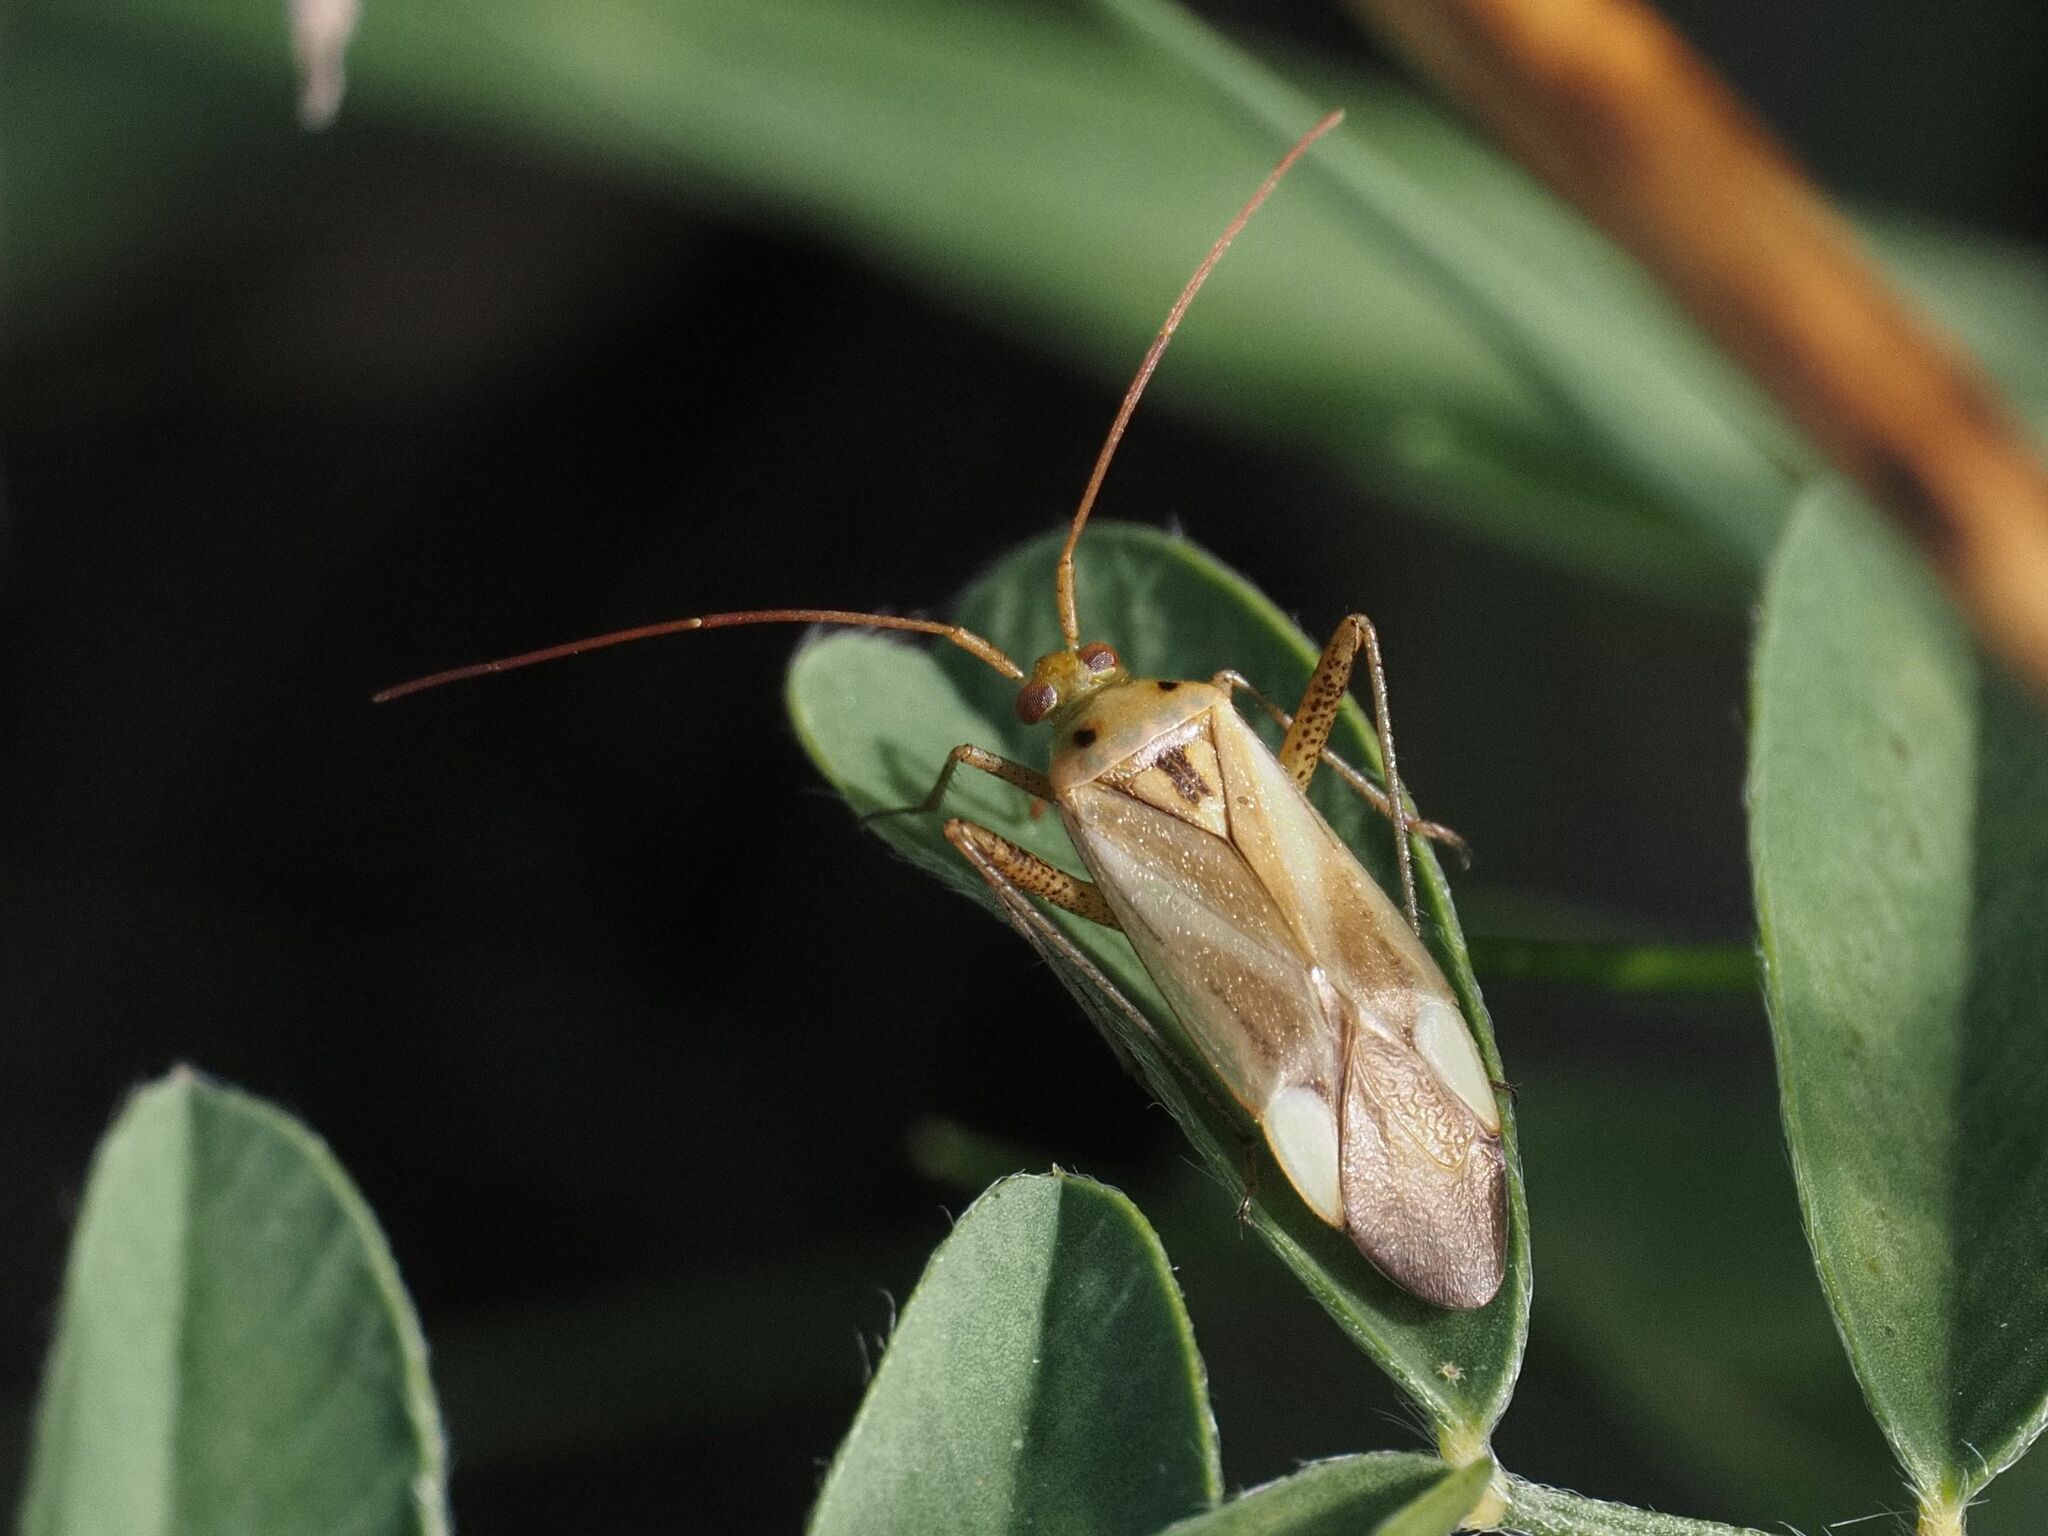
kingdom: Animalia
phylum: Arthropoda
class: Insecta
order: Hemiptera
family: Miridae
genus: Adelphocoris
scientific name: Adelphocoris lineolatus
